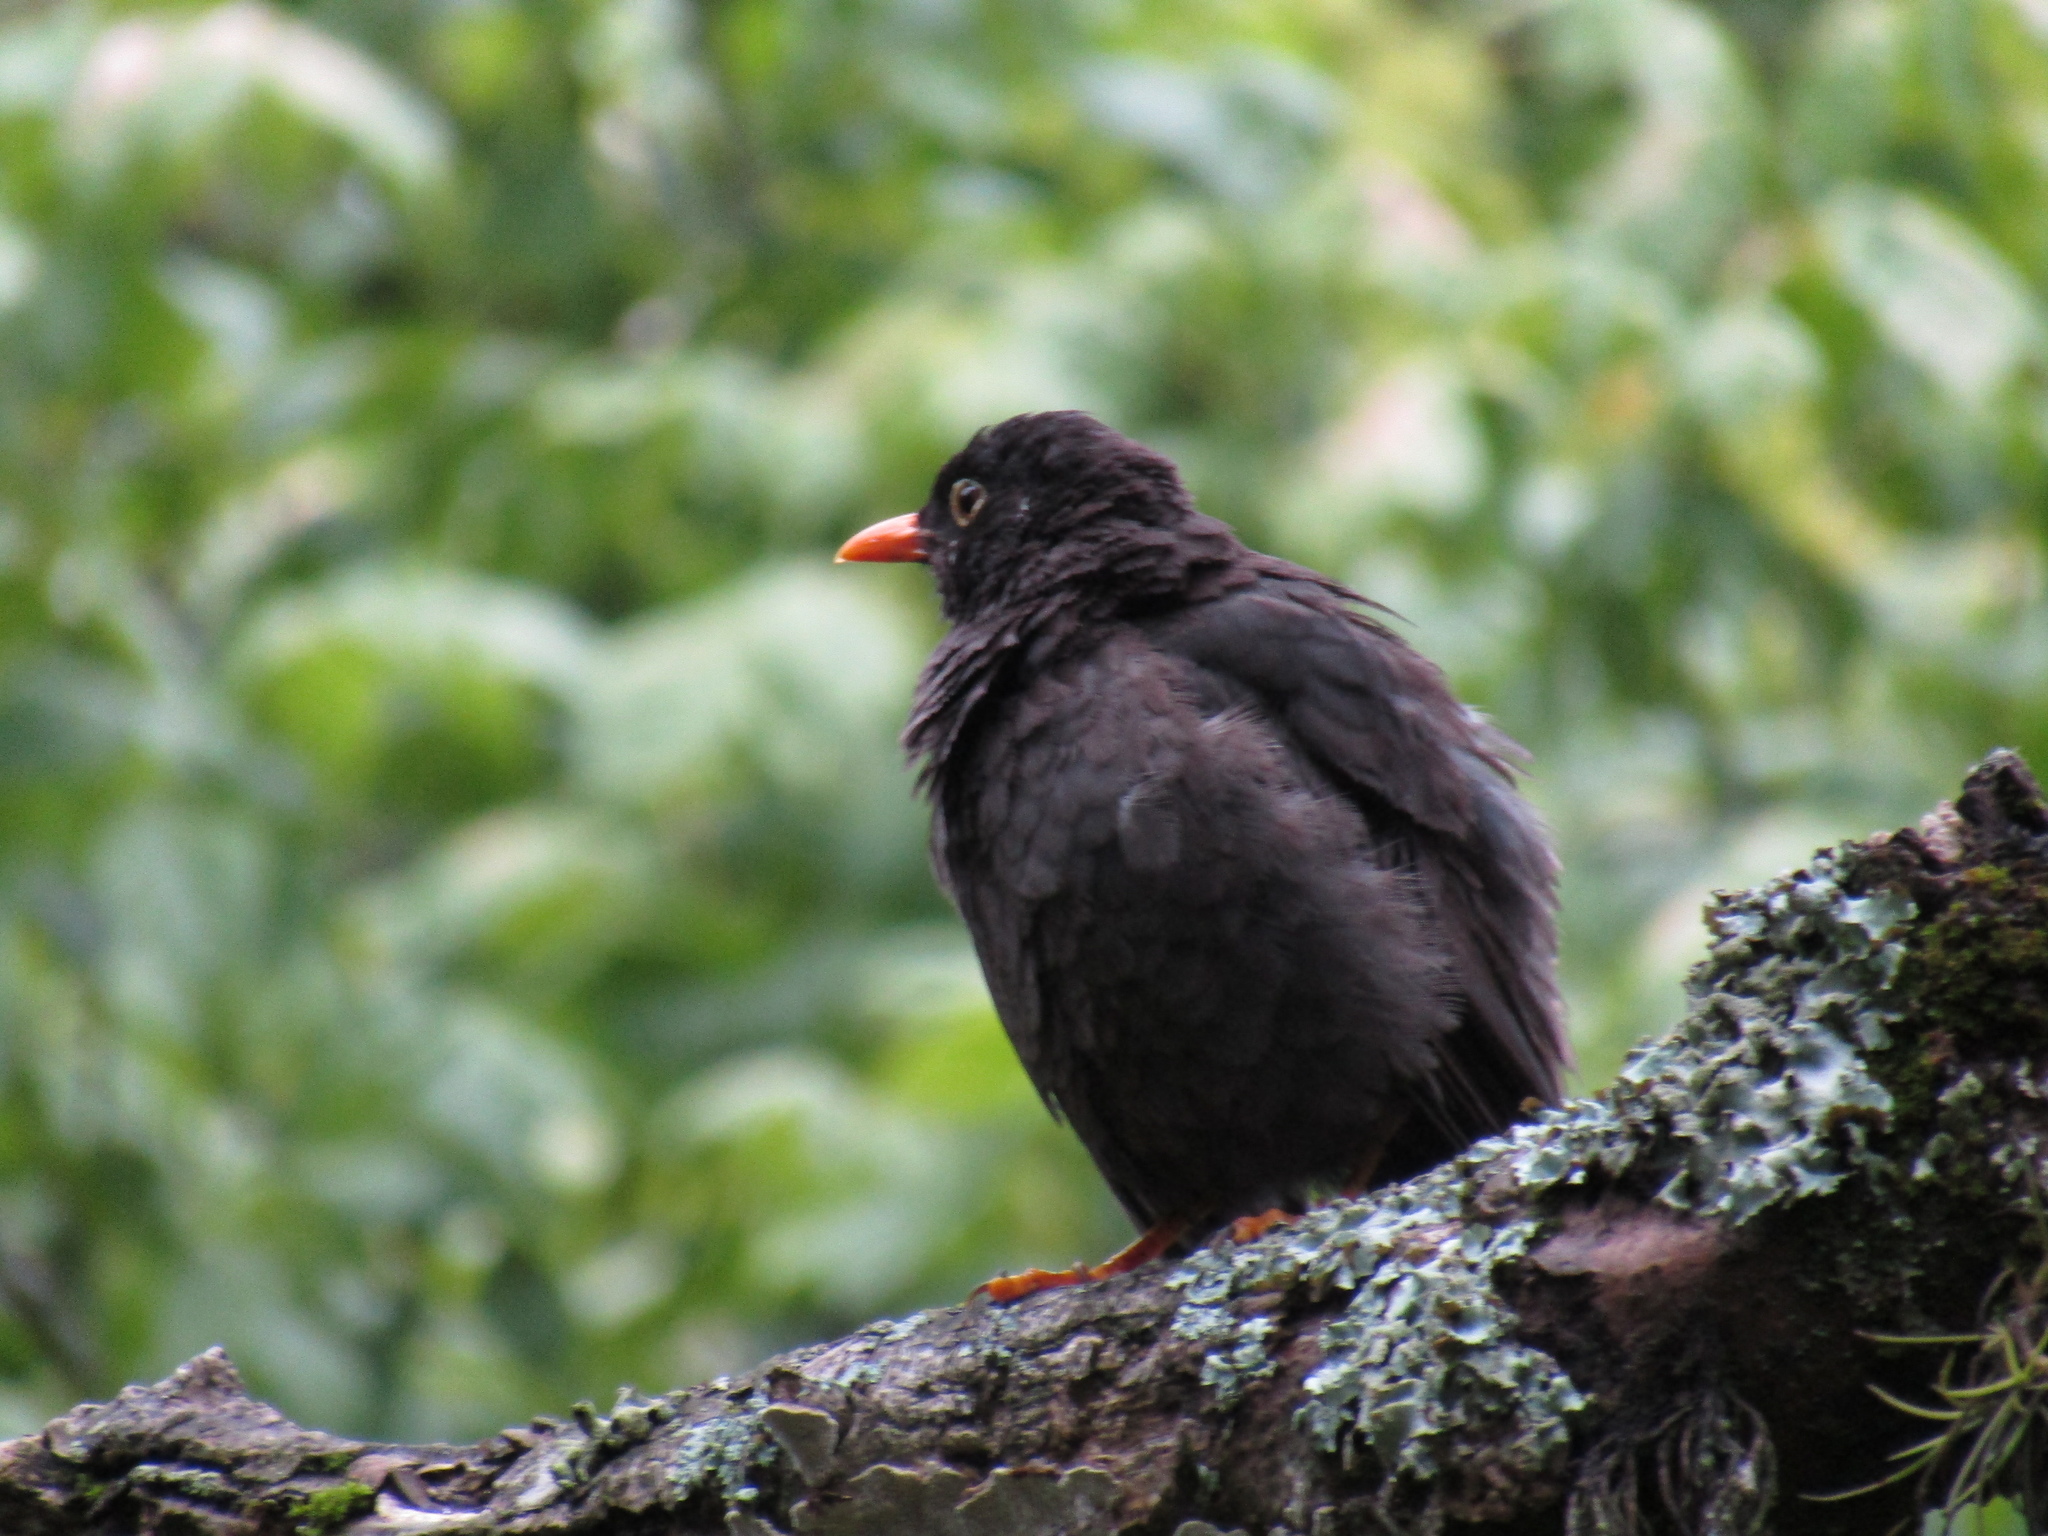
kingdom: Animalia
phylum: Chordata
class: Aves
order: Passeriformes
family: Turdidae
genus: Turdus
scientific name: Turdus chiguanco
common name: Chiguanco thrush
